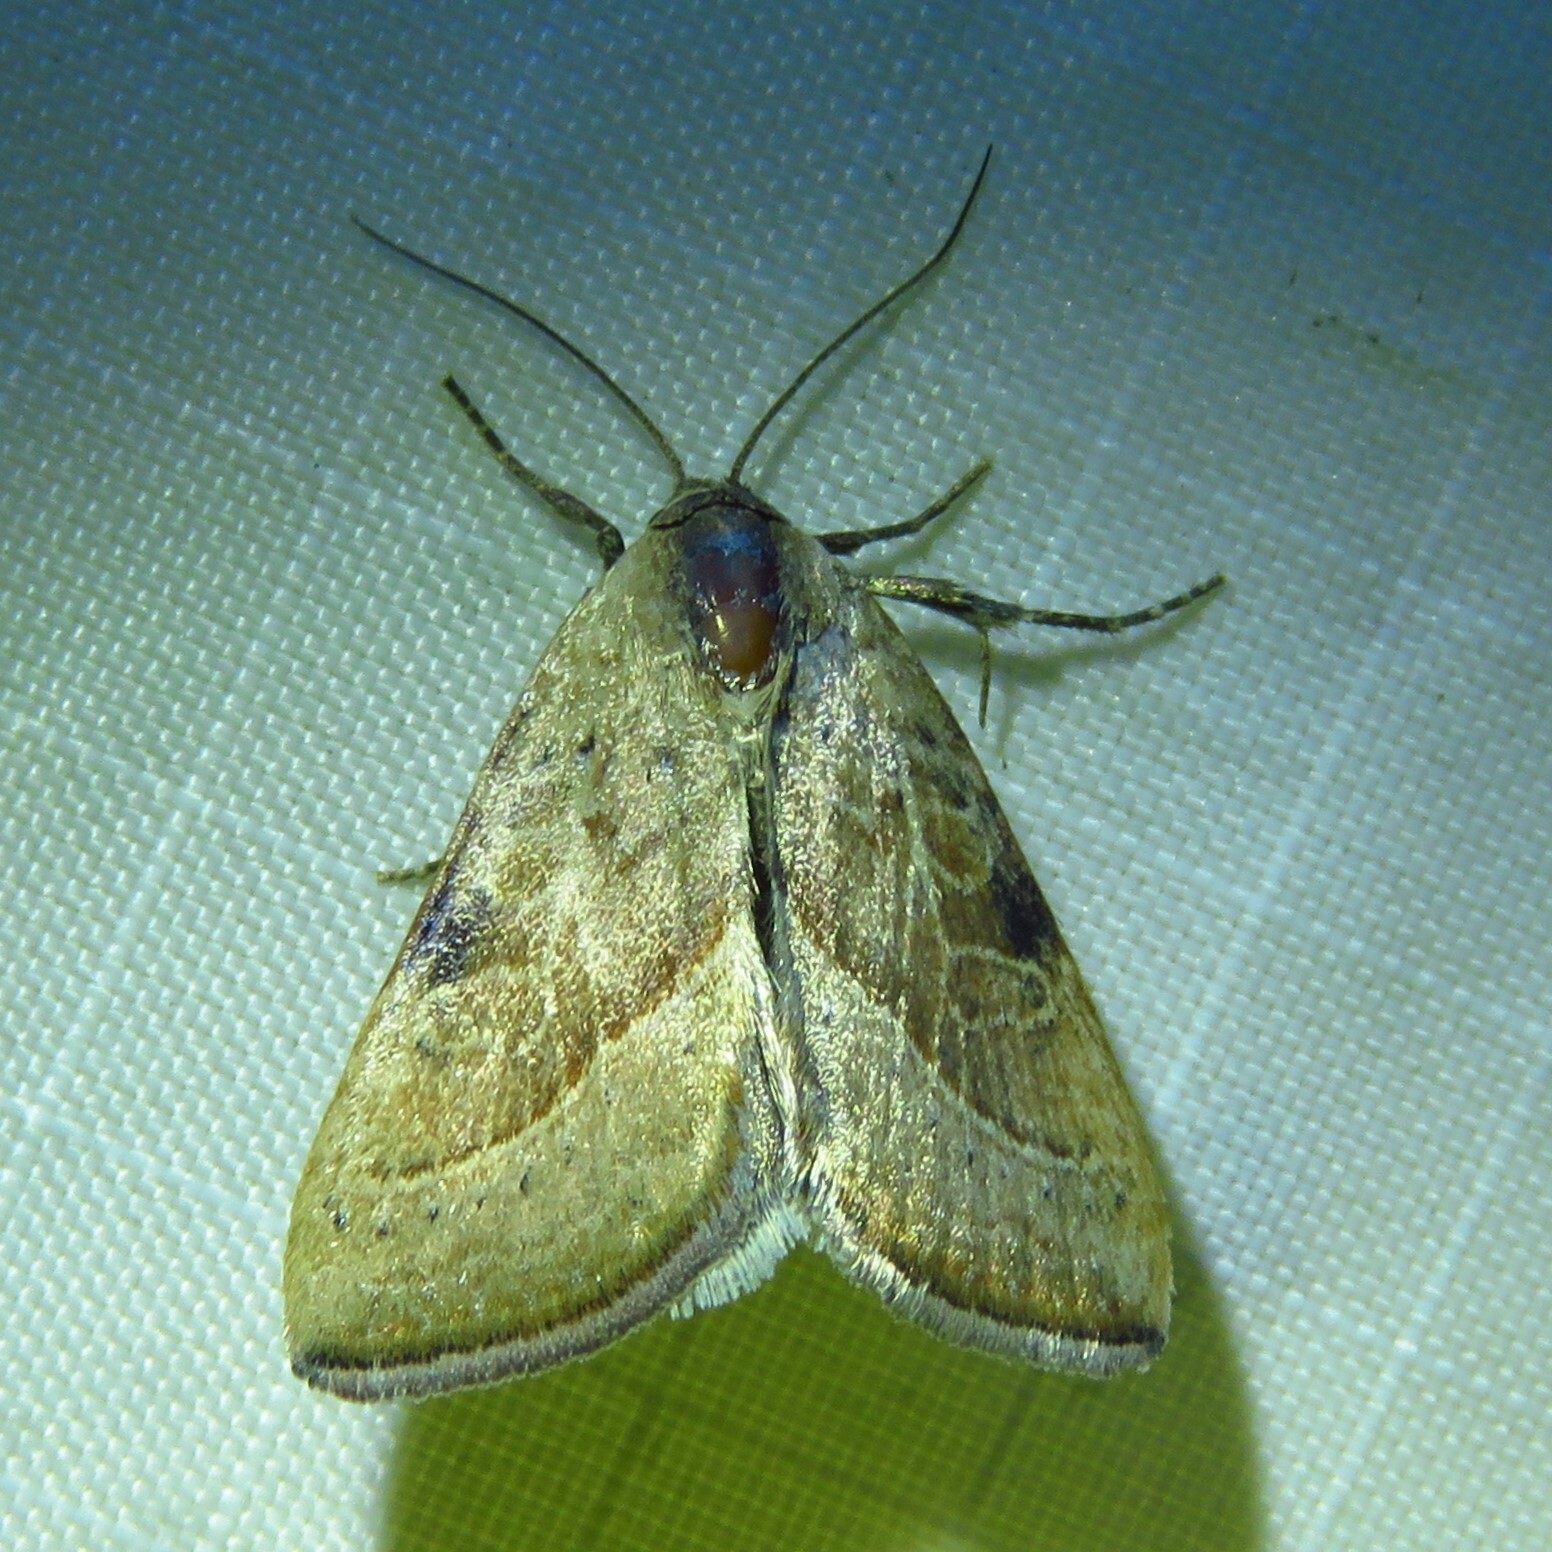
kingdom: Animalia
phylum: Arthropoda
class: Insecta
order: Lepidoptera
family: Noctuidae
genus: Galgula
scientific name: Galgula partita
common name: Wedgeling
